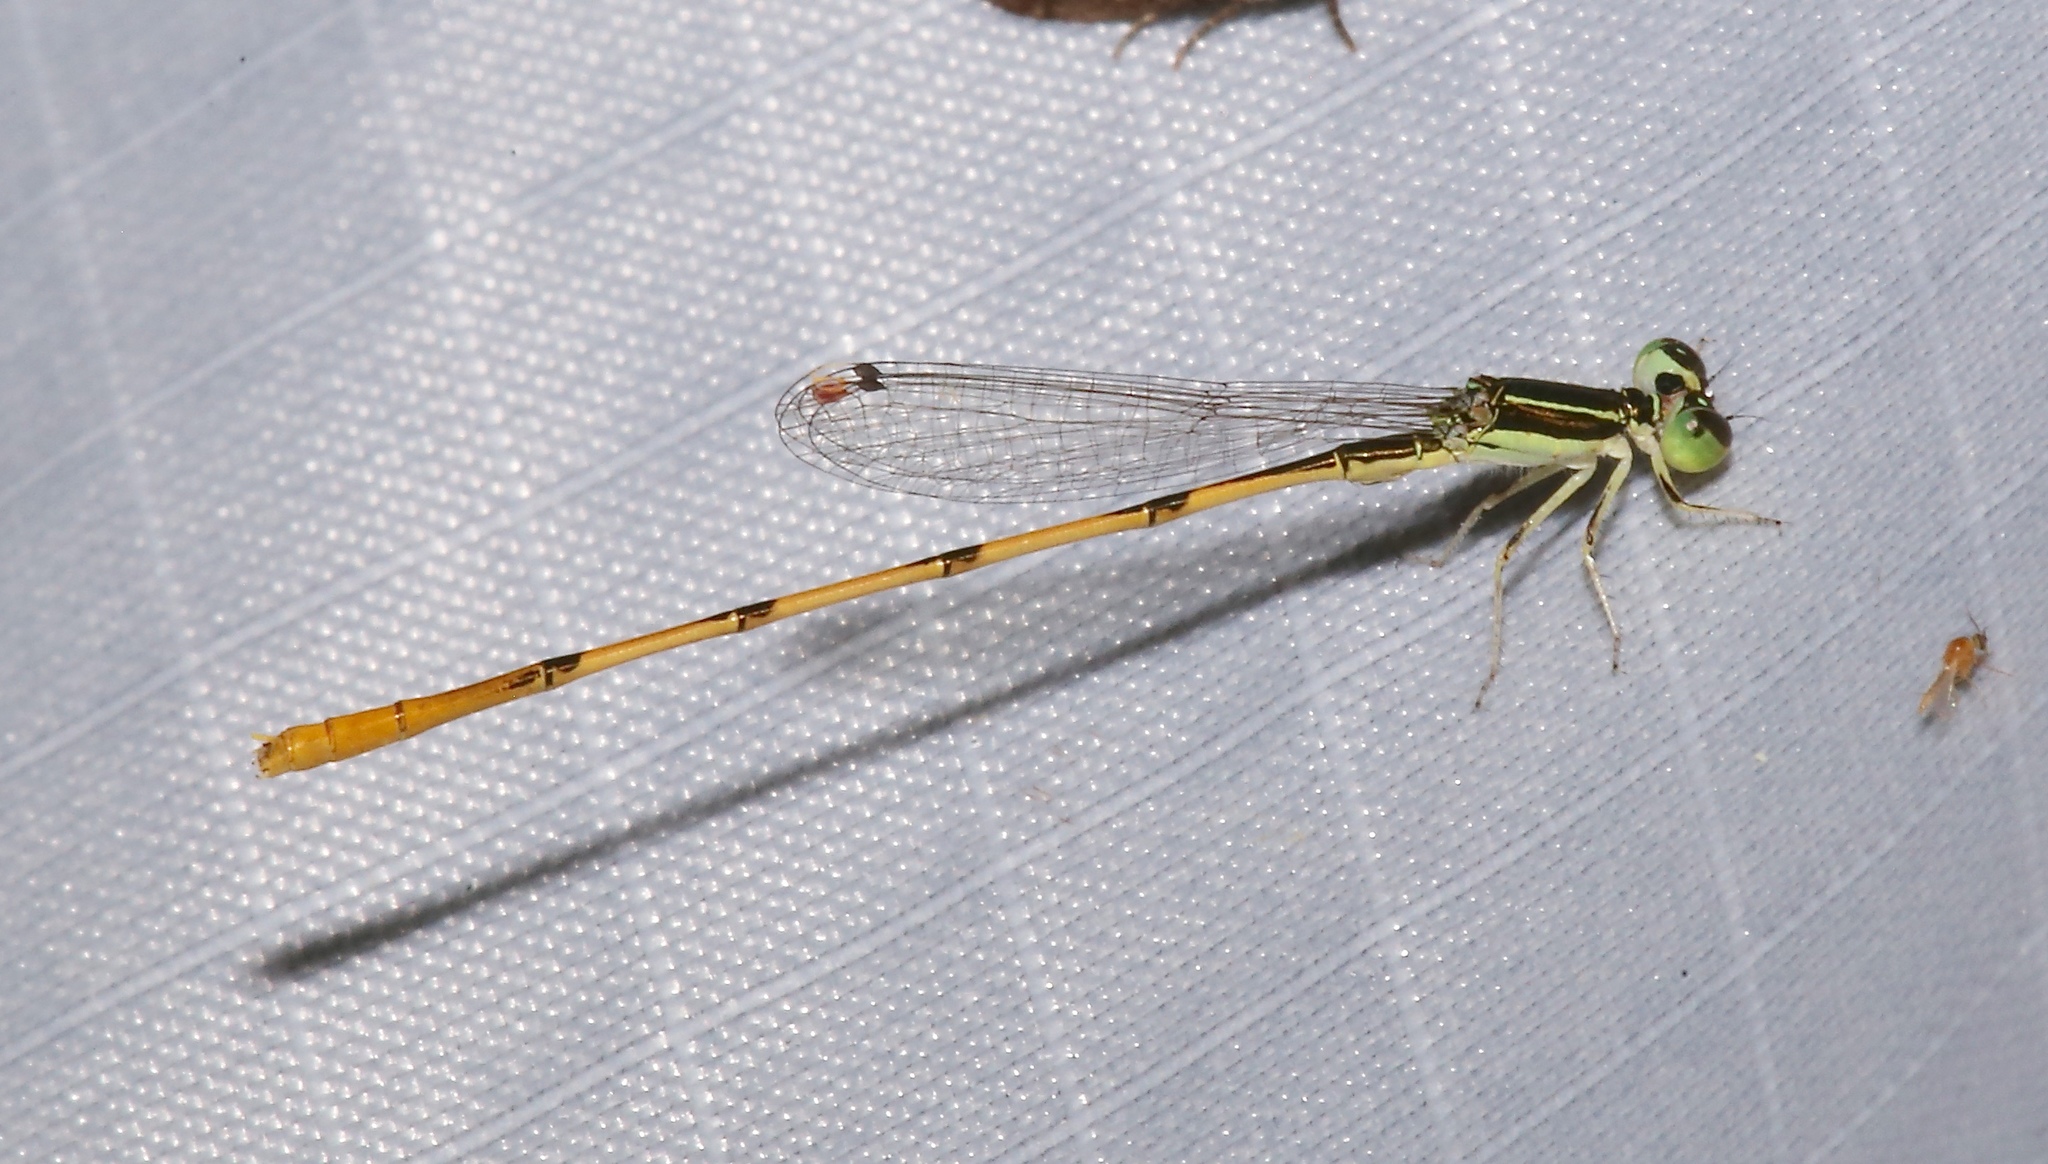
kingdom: Animalia
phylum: Arthropoda
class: Insecta
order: Odonata
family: Coenagrionidae
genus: Ischnura
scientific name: Ischnura hastata
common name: Citrine forktail
